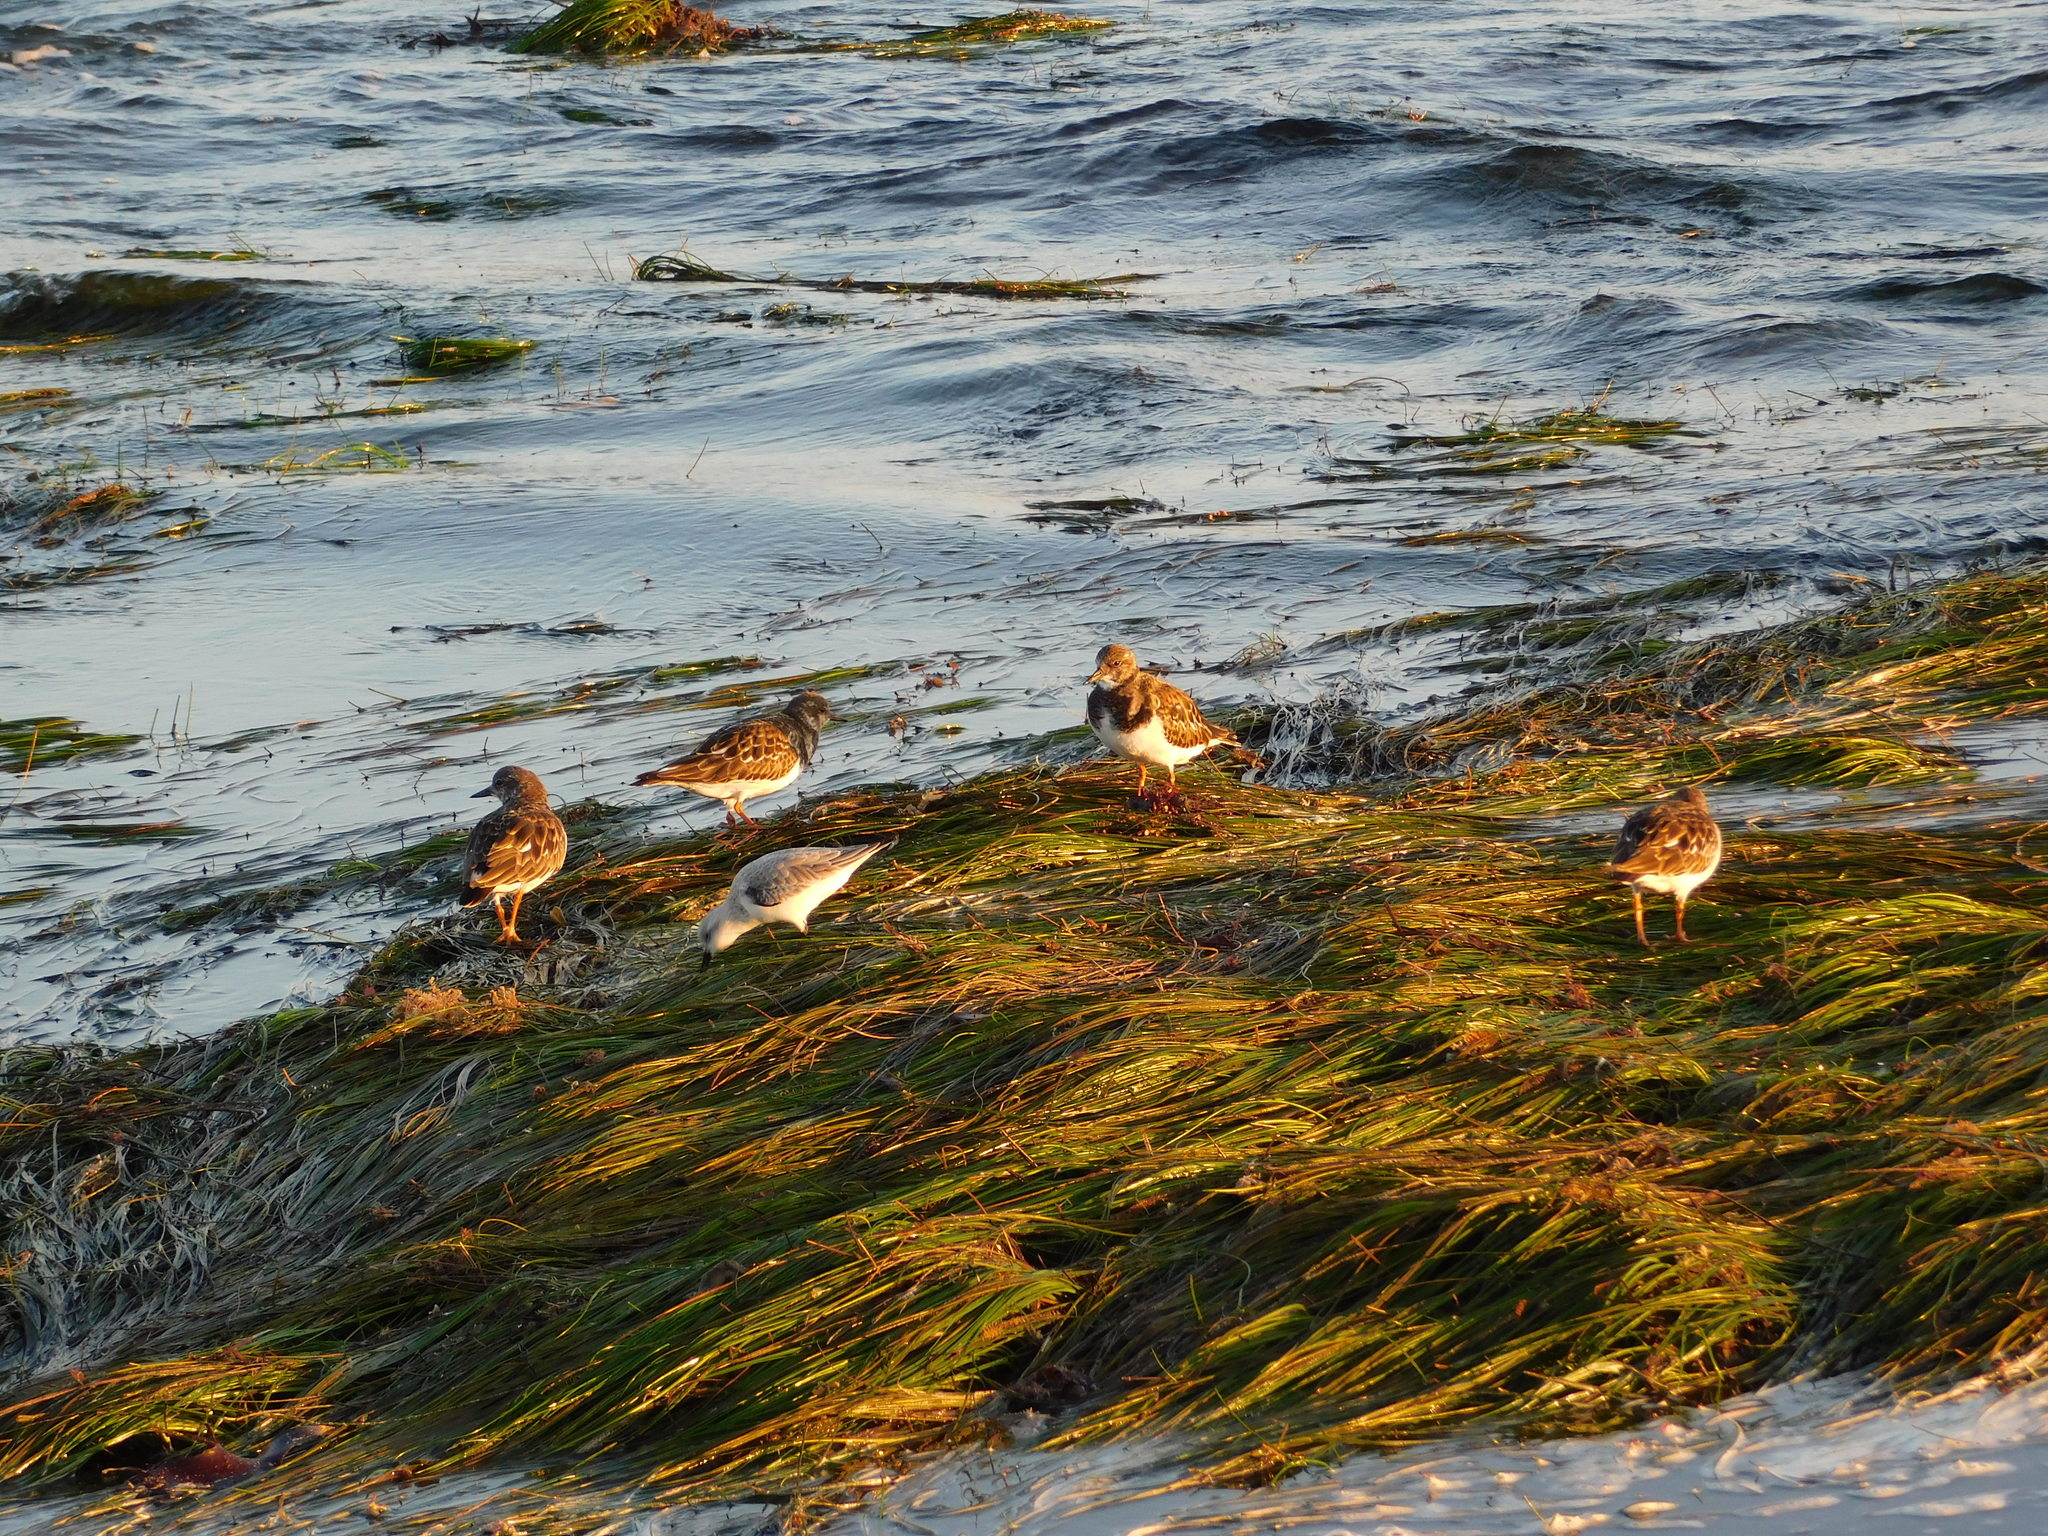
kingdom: Animalia
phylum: Chordata
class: Aves
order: Charadriiformes
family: Scolopacidae
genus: Arenaria
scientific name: Arenaria interpres
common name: Ruddy turnstone
